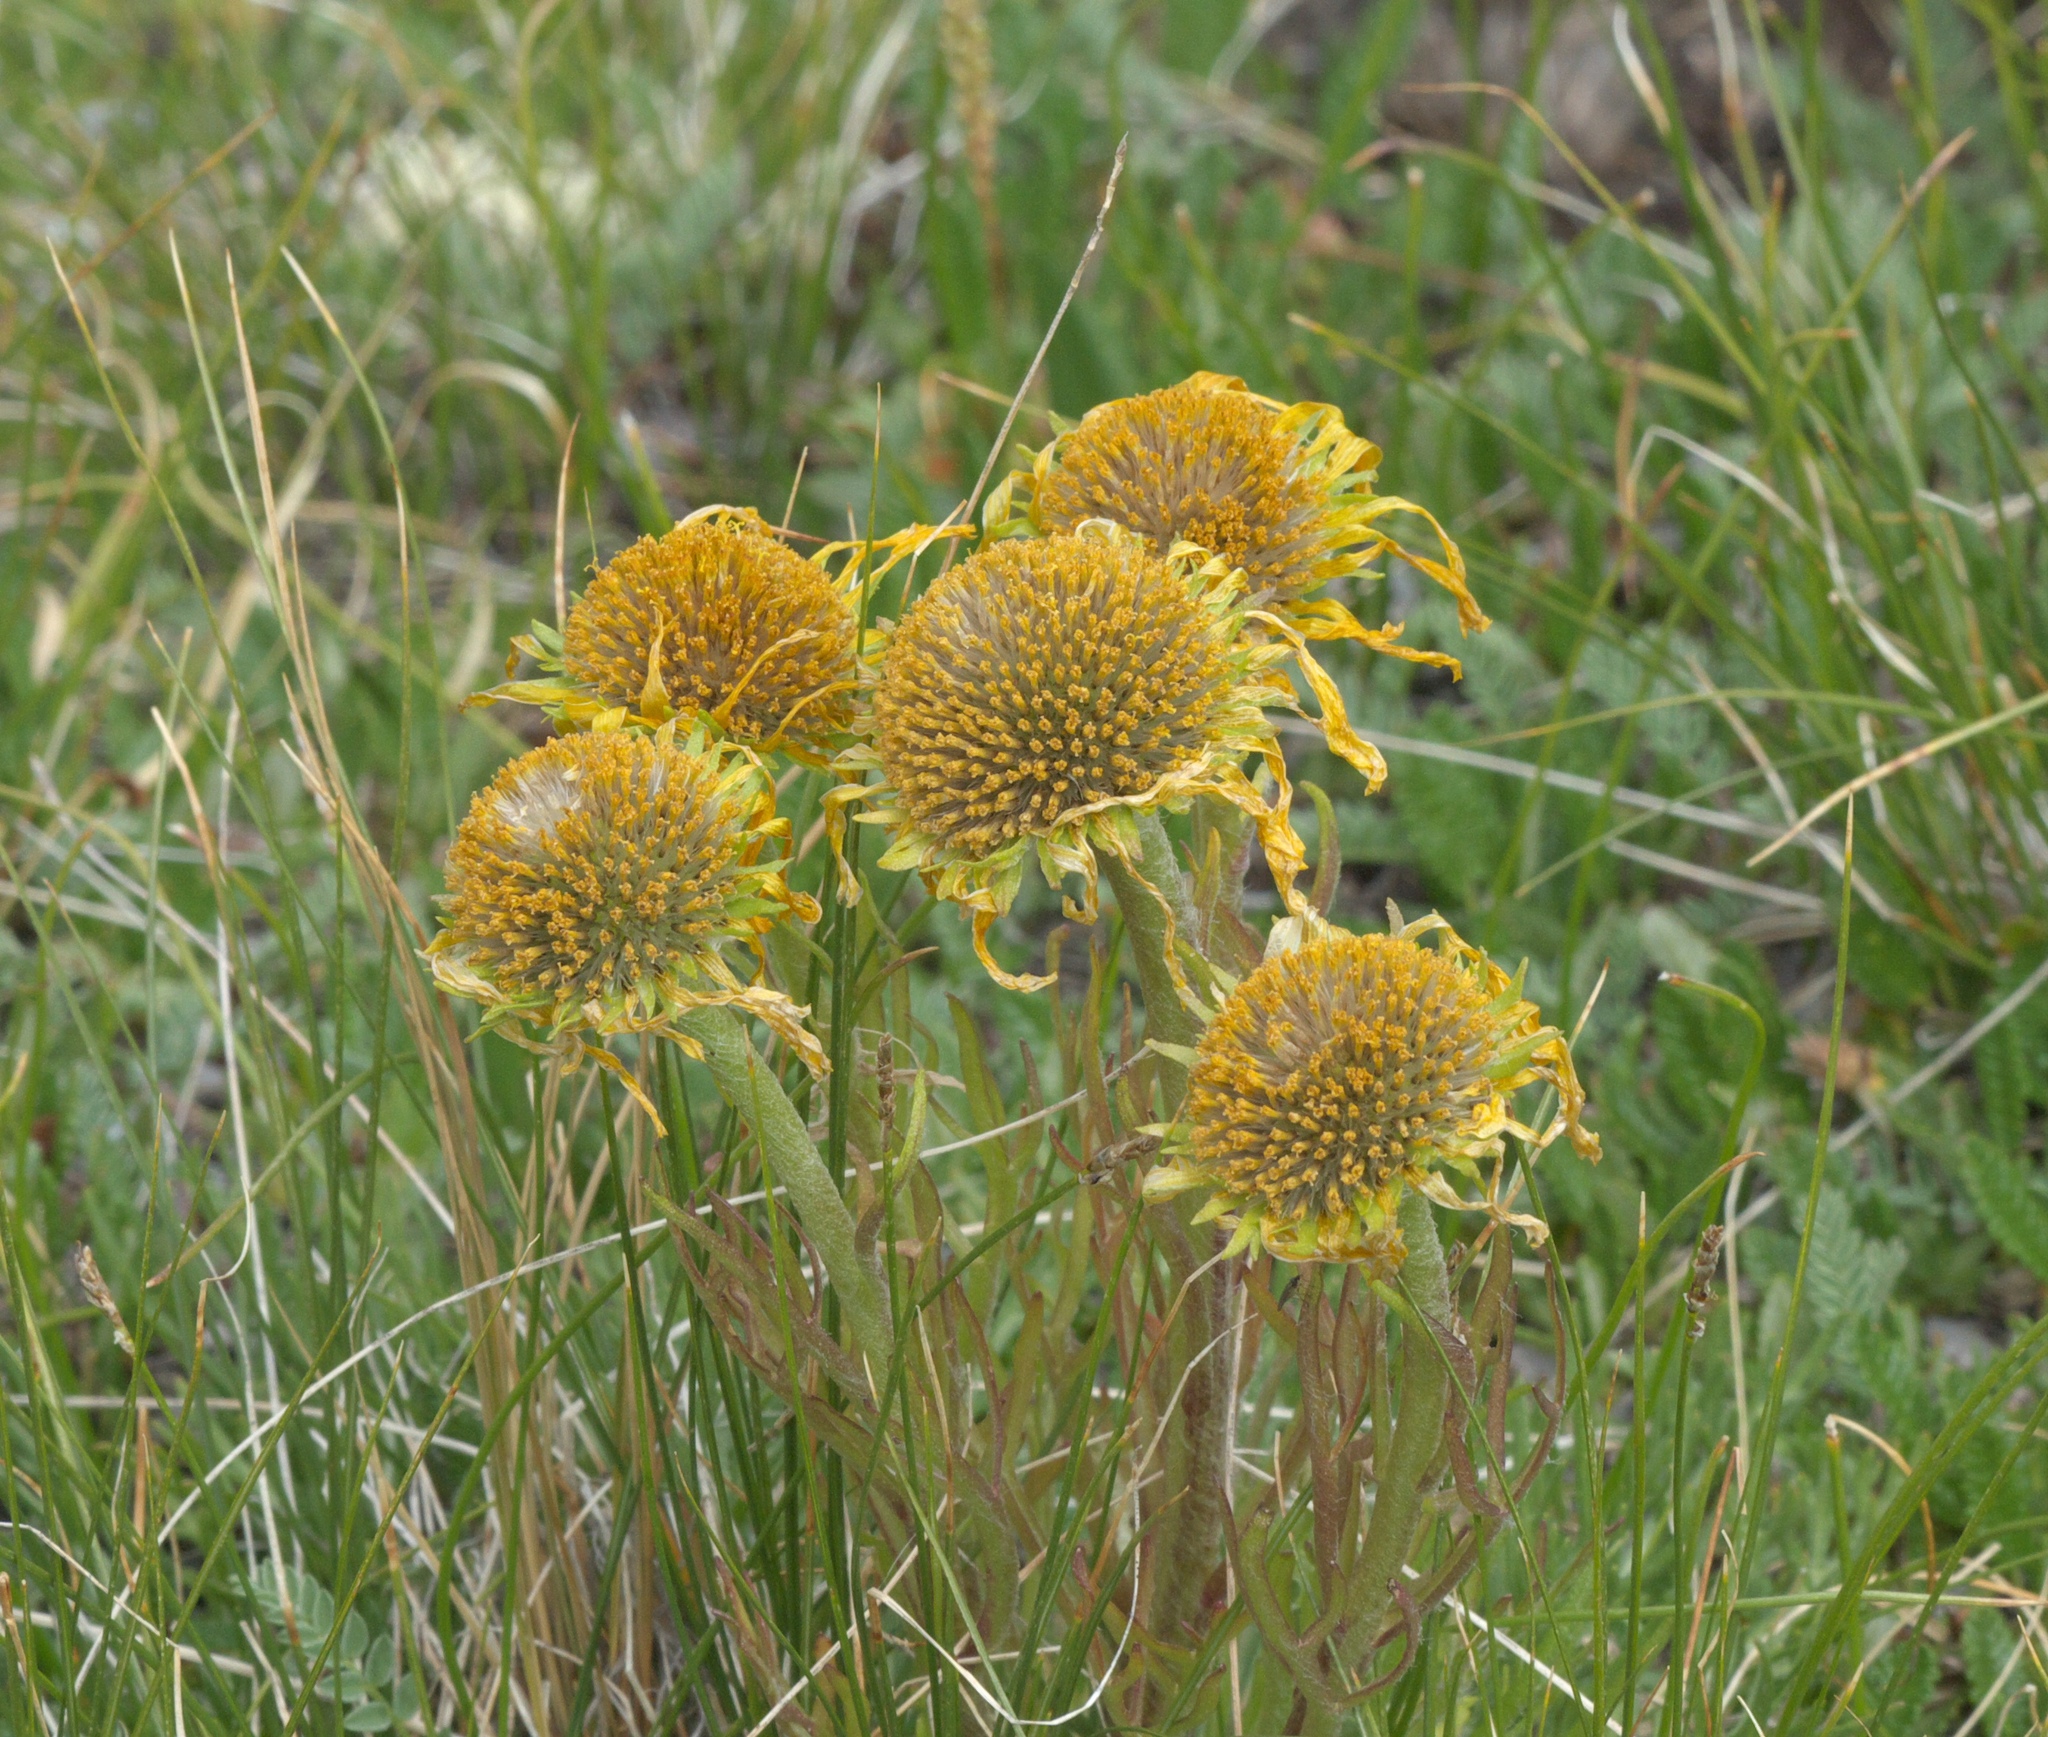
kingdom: Plantae
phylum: Tracheophyta
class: Magnoliopsida
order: Asterales
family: Asteraceae
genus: Hymenoxys
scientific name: Hymenoxys grandiflora
